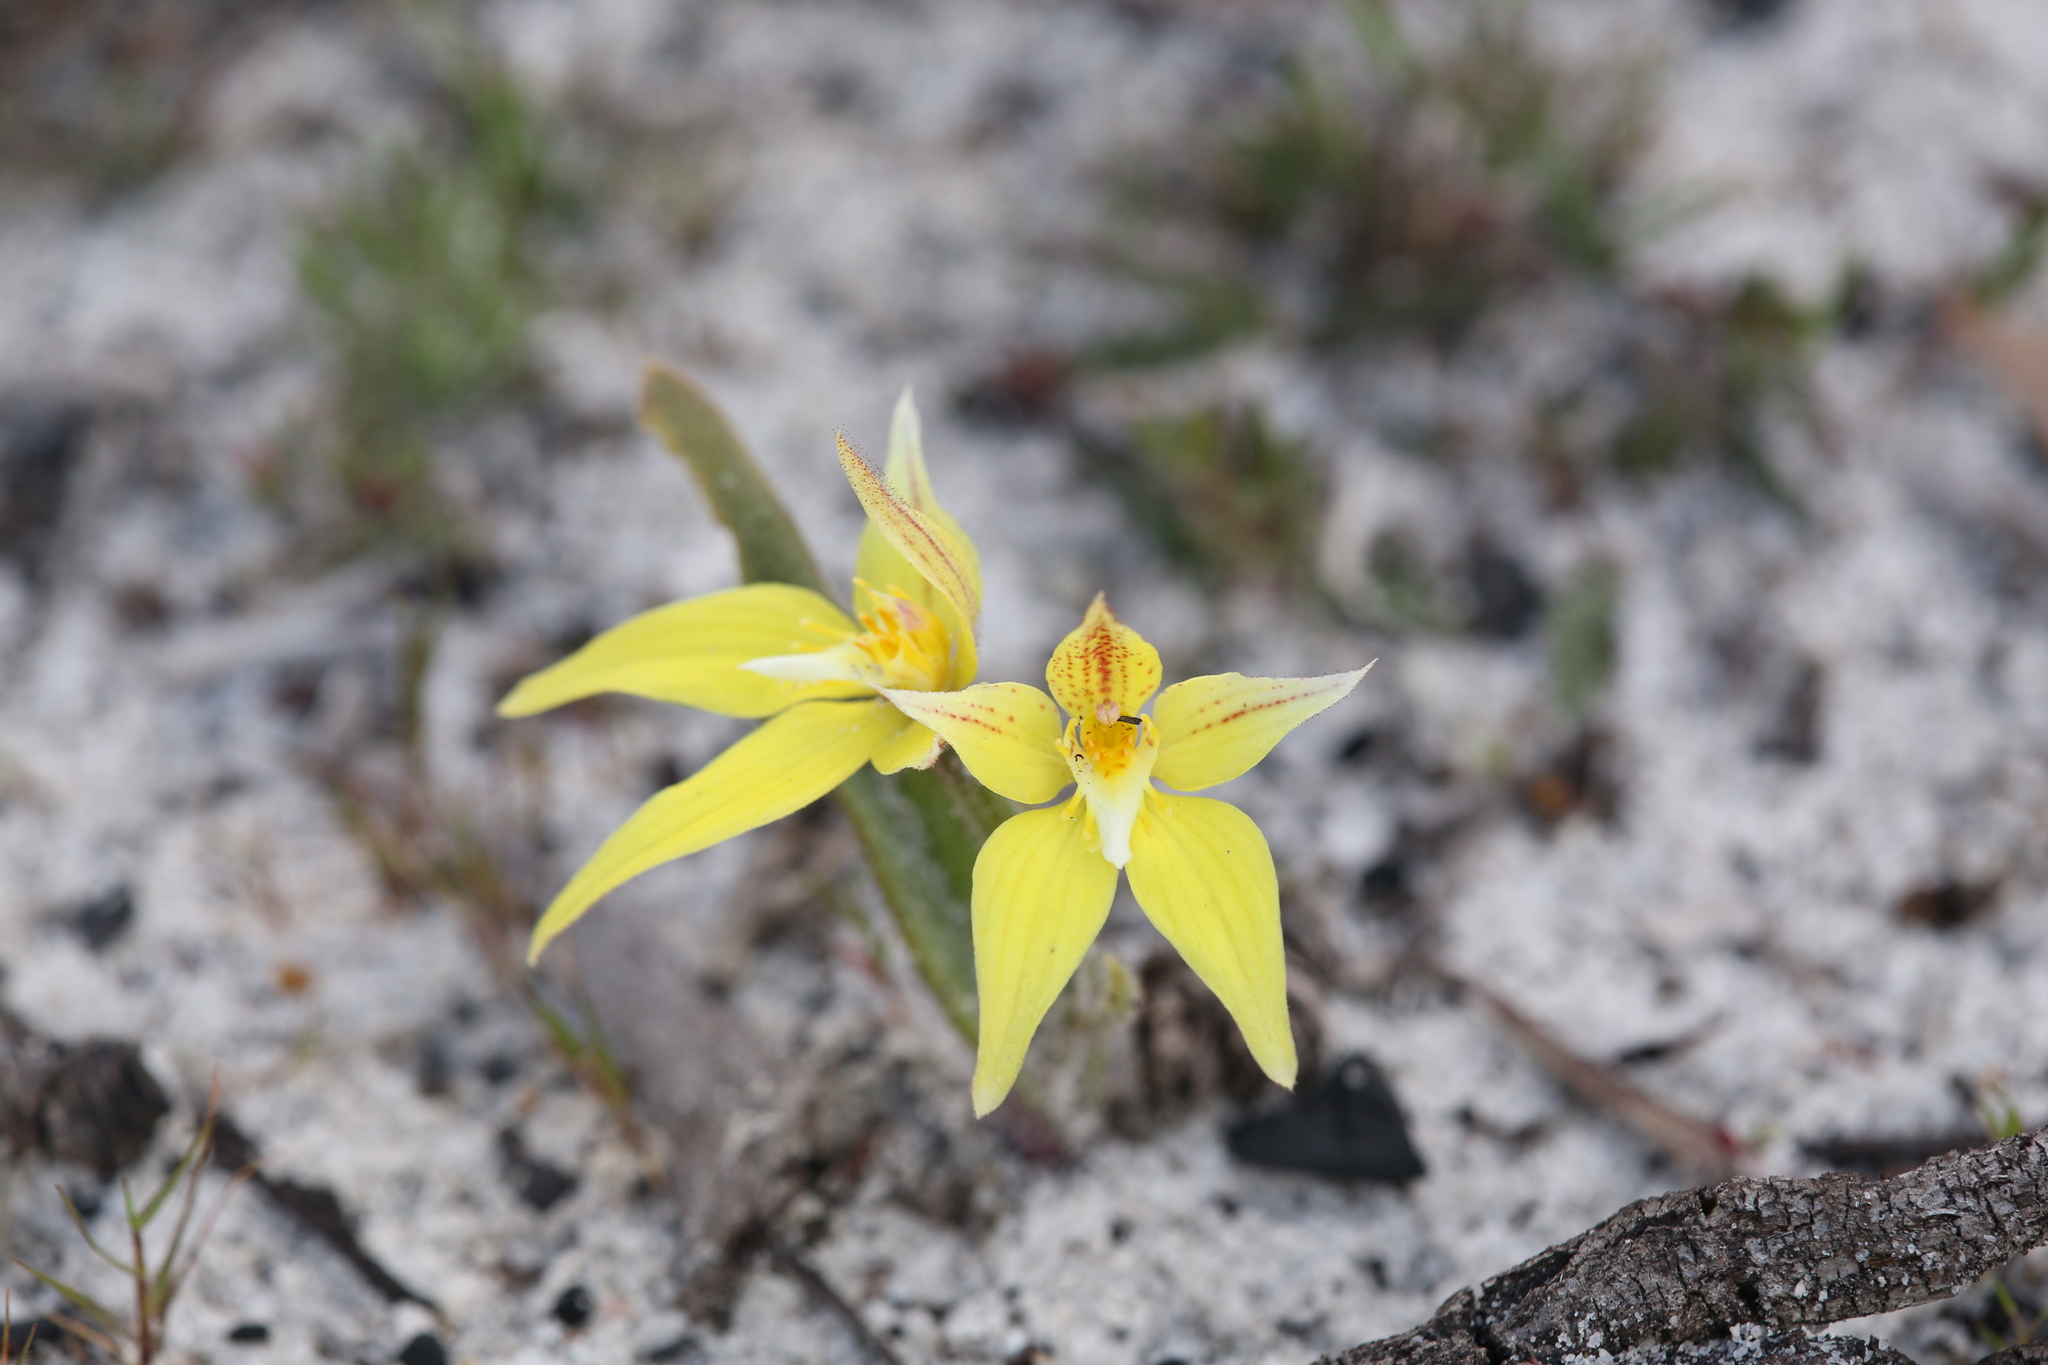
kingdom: Plantae
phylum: Tracheophyta
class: Liliopsida
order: Asparagales
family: Orchidaceae
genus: Caladenia
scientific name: Caladenia flava
